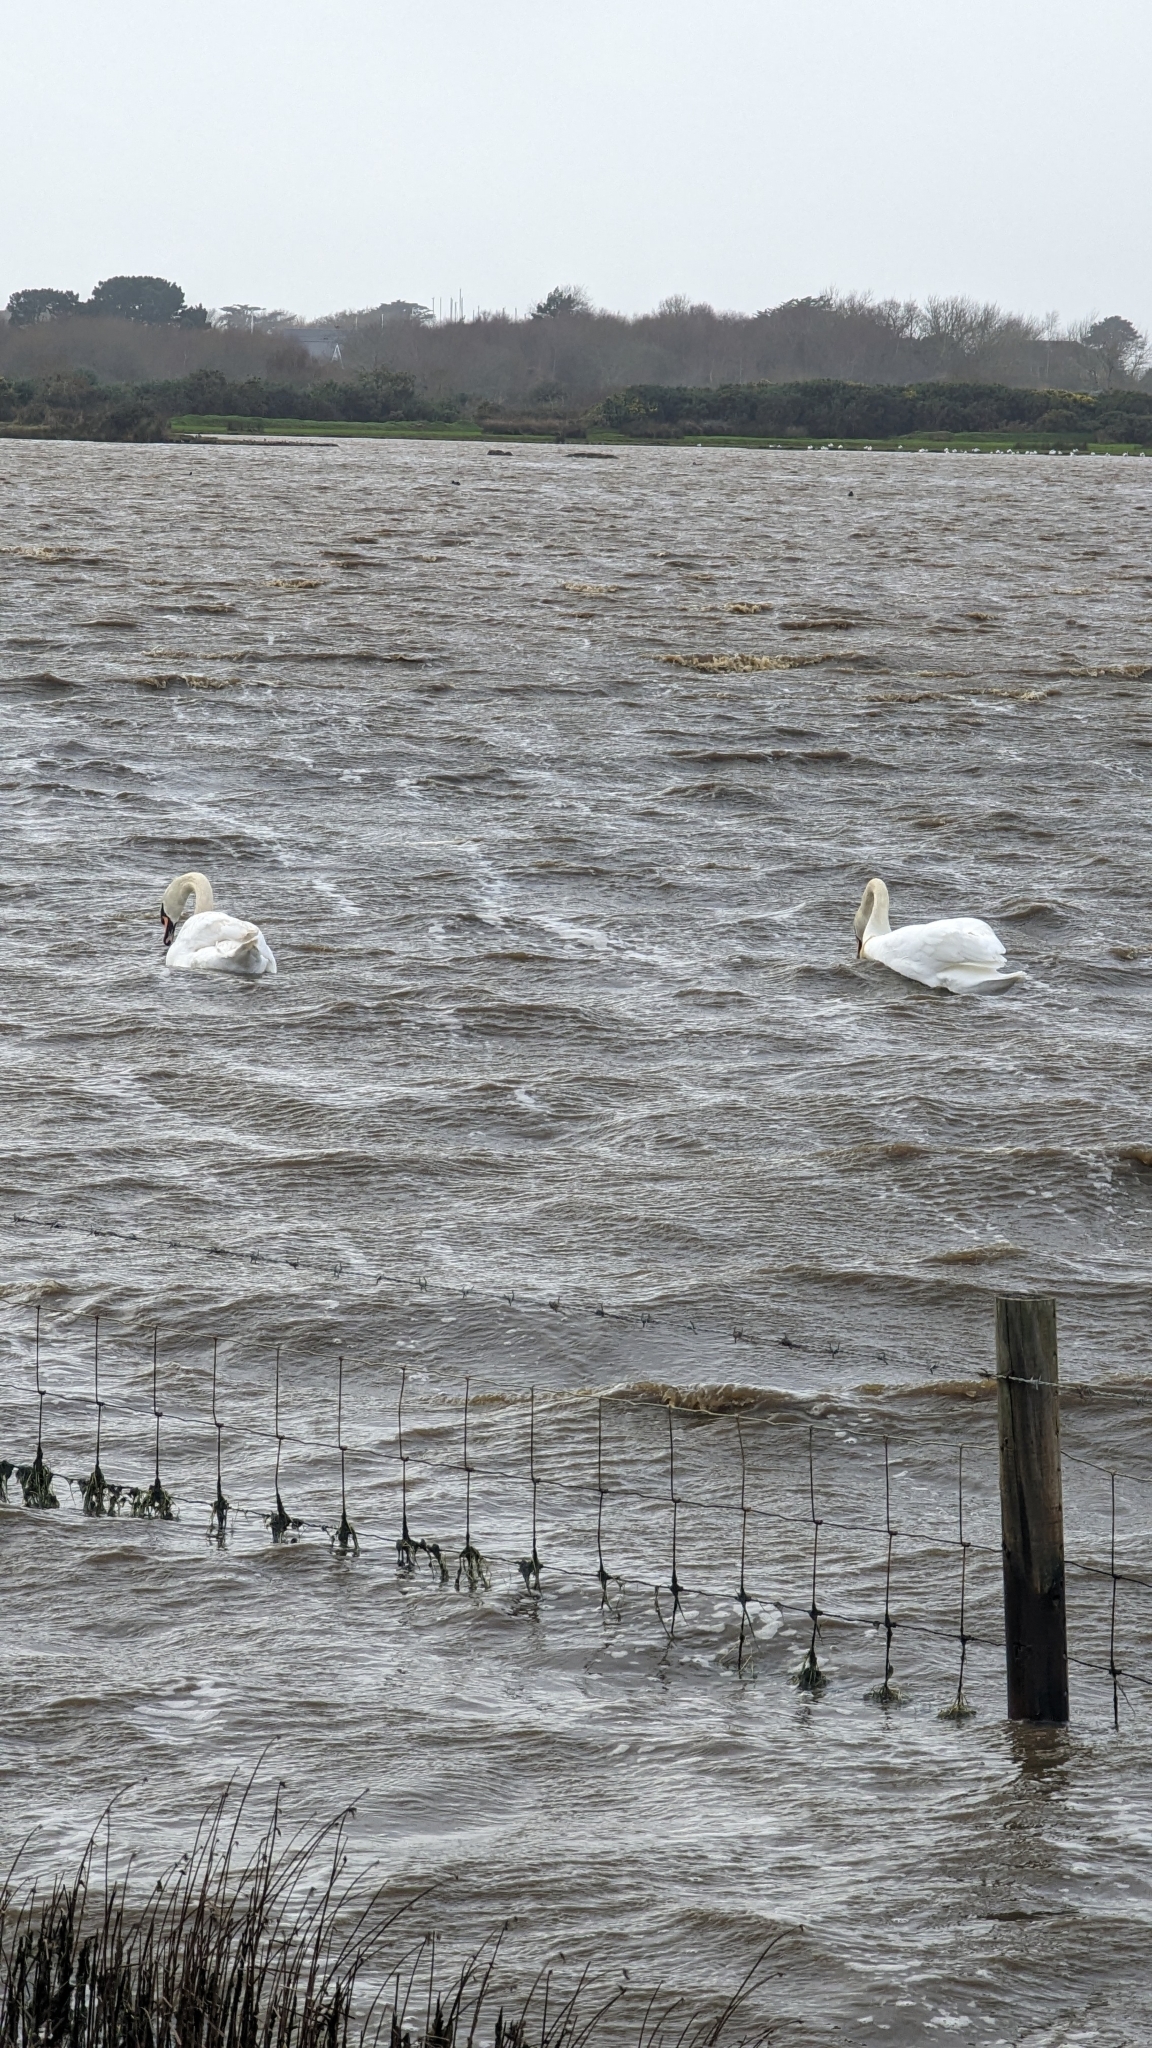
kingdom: Animalia
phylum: Chordata
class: Aves
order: Anseriformes
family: Anatidae
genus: Cygnus
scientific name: Cygnus olor
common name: Mute swan
